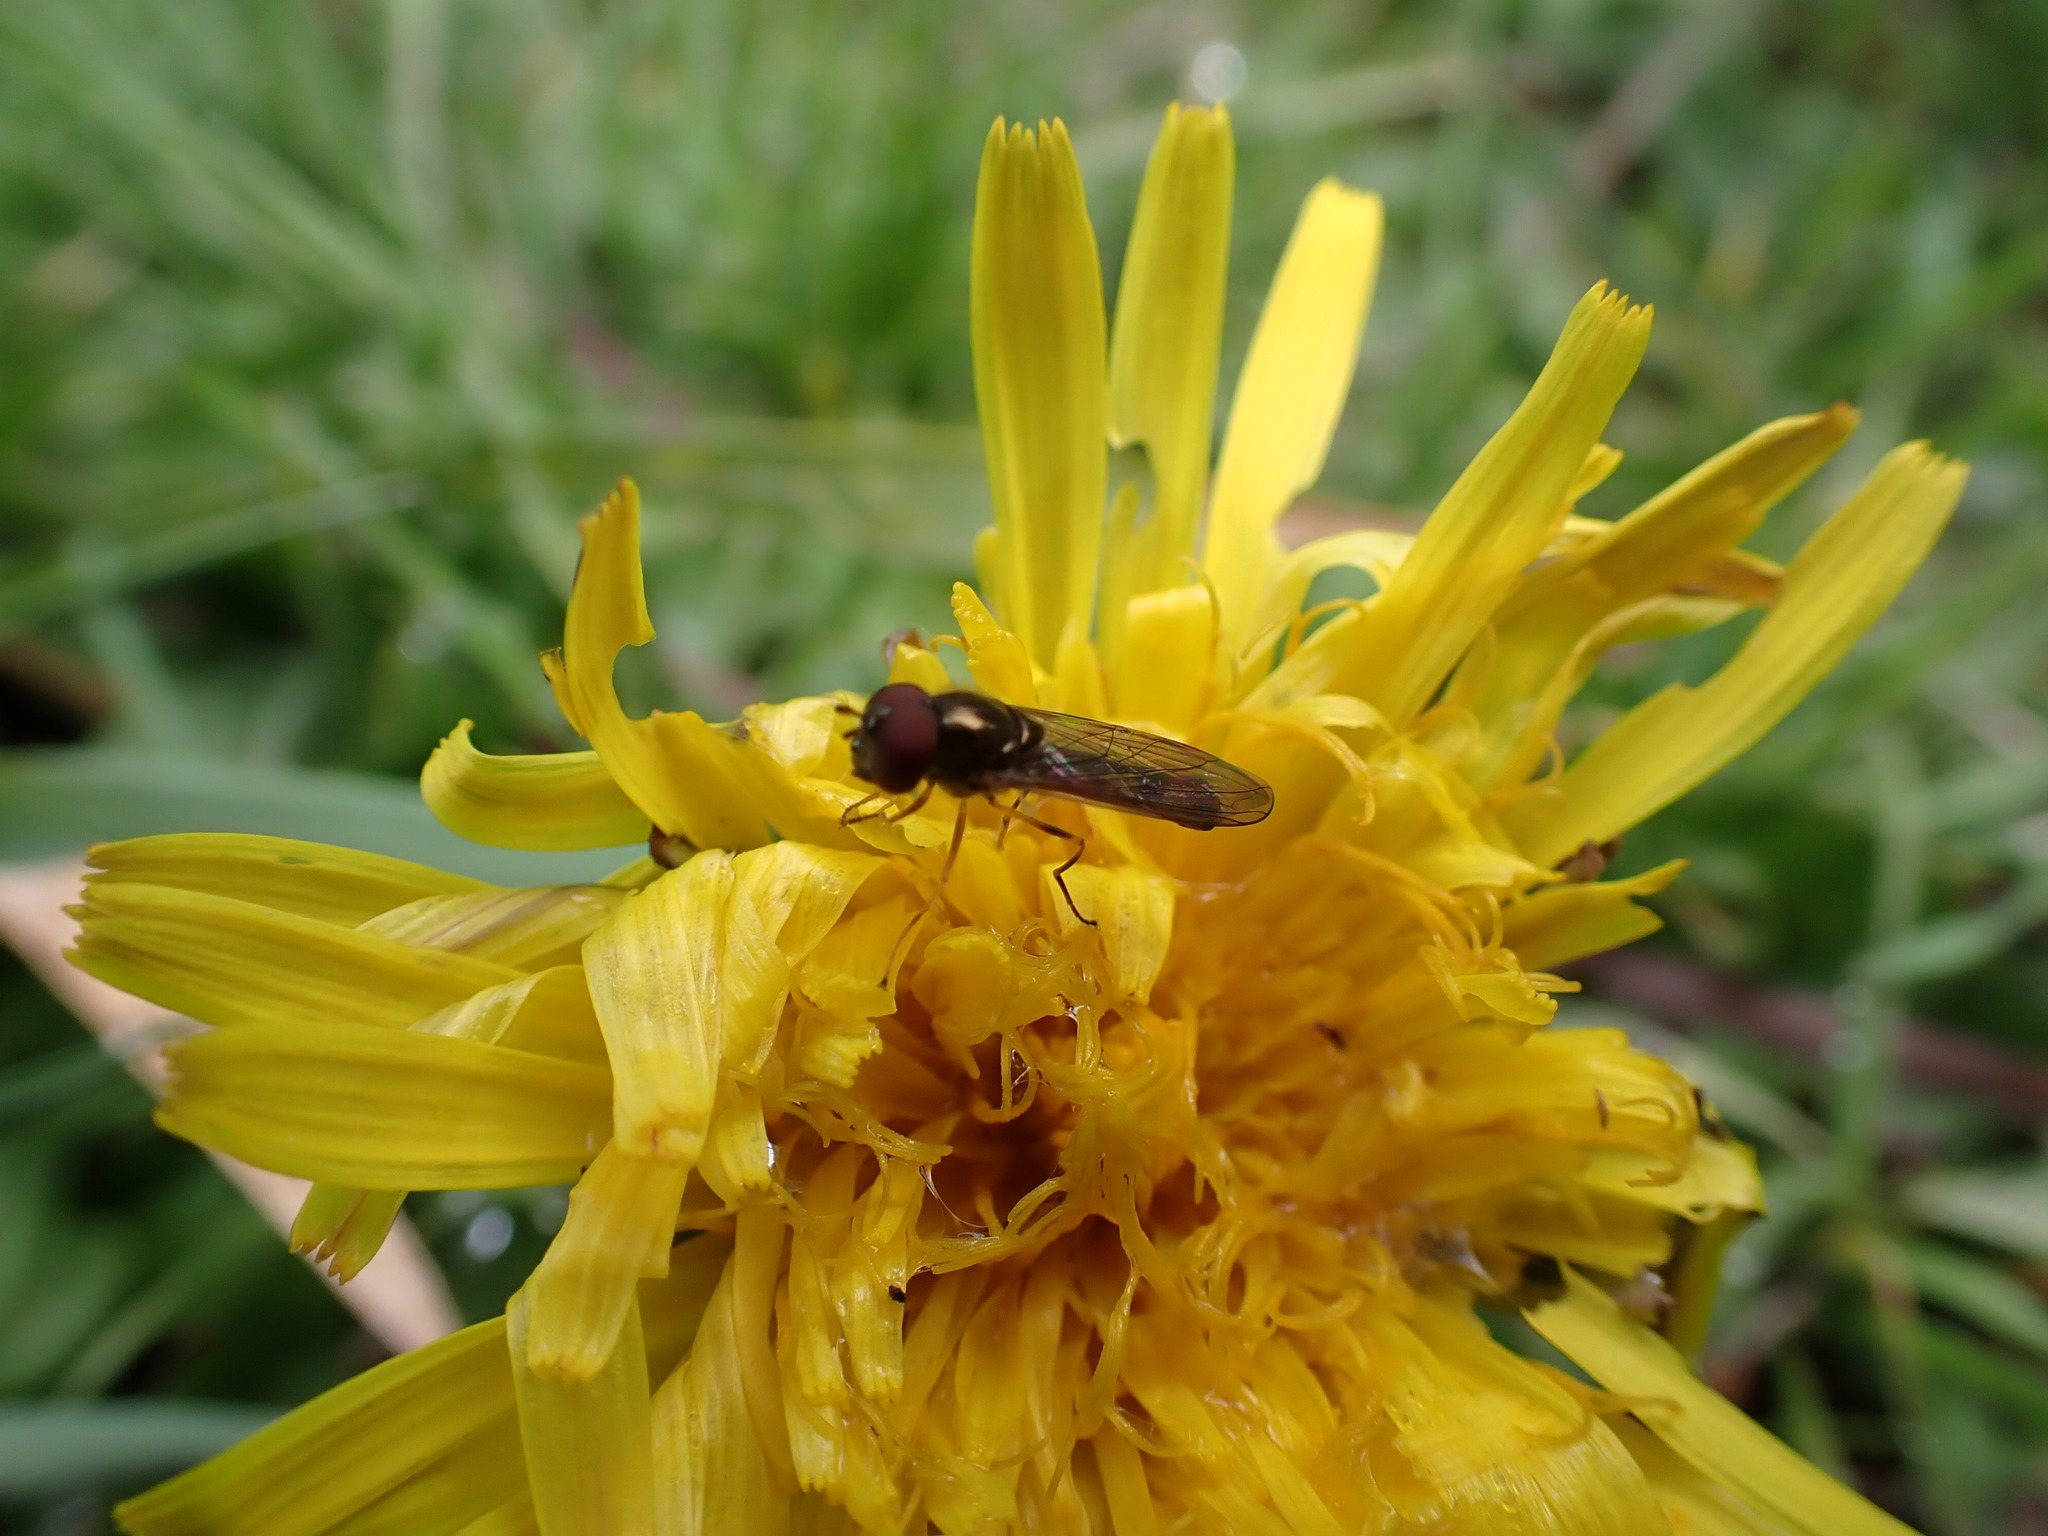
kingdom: Animalia
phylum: Arthropoda
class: Insecta
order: Diptera
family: Syrphidae
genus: Melanostoma
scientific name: Melanostoma mellina
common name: Hover fly
